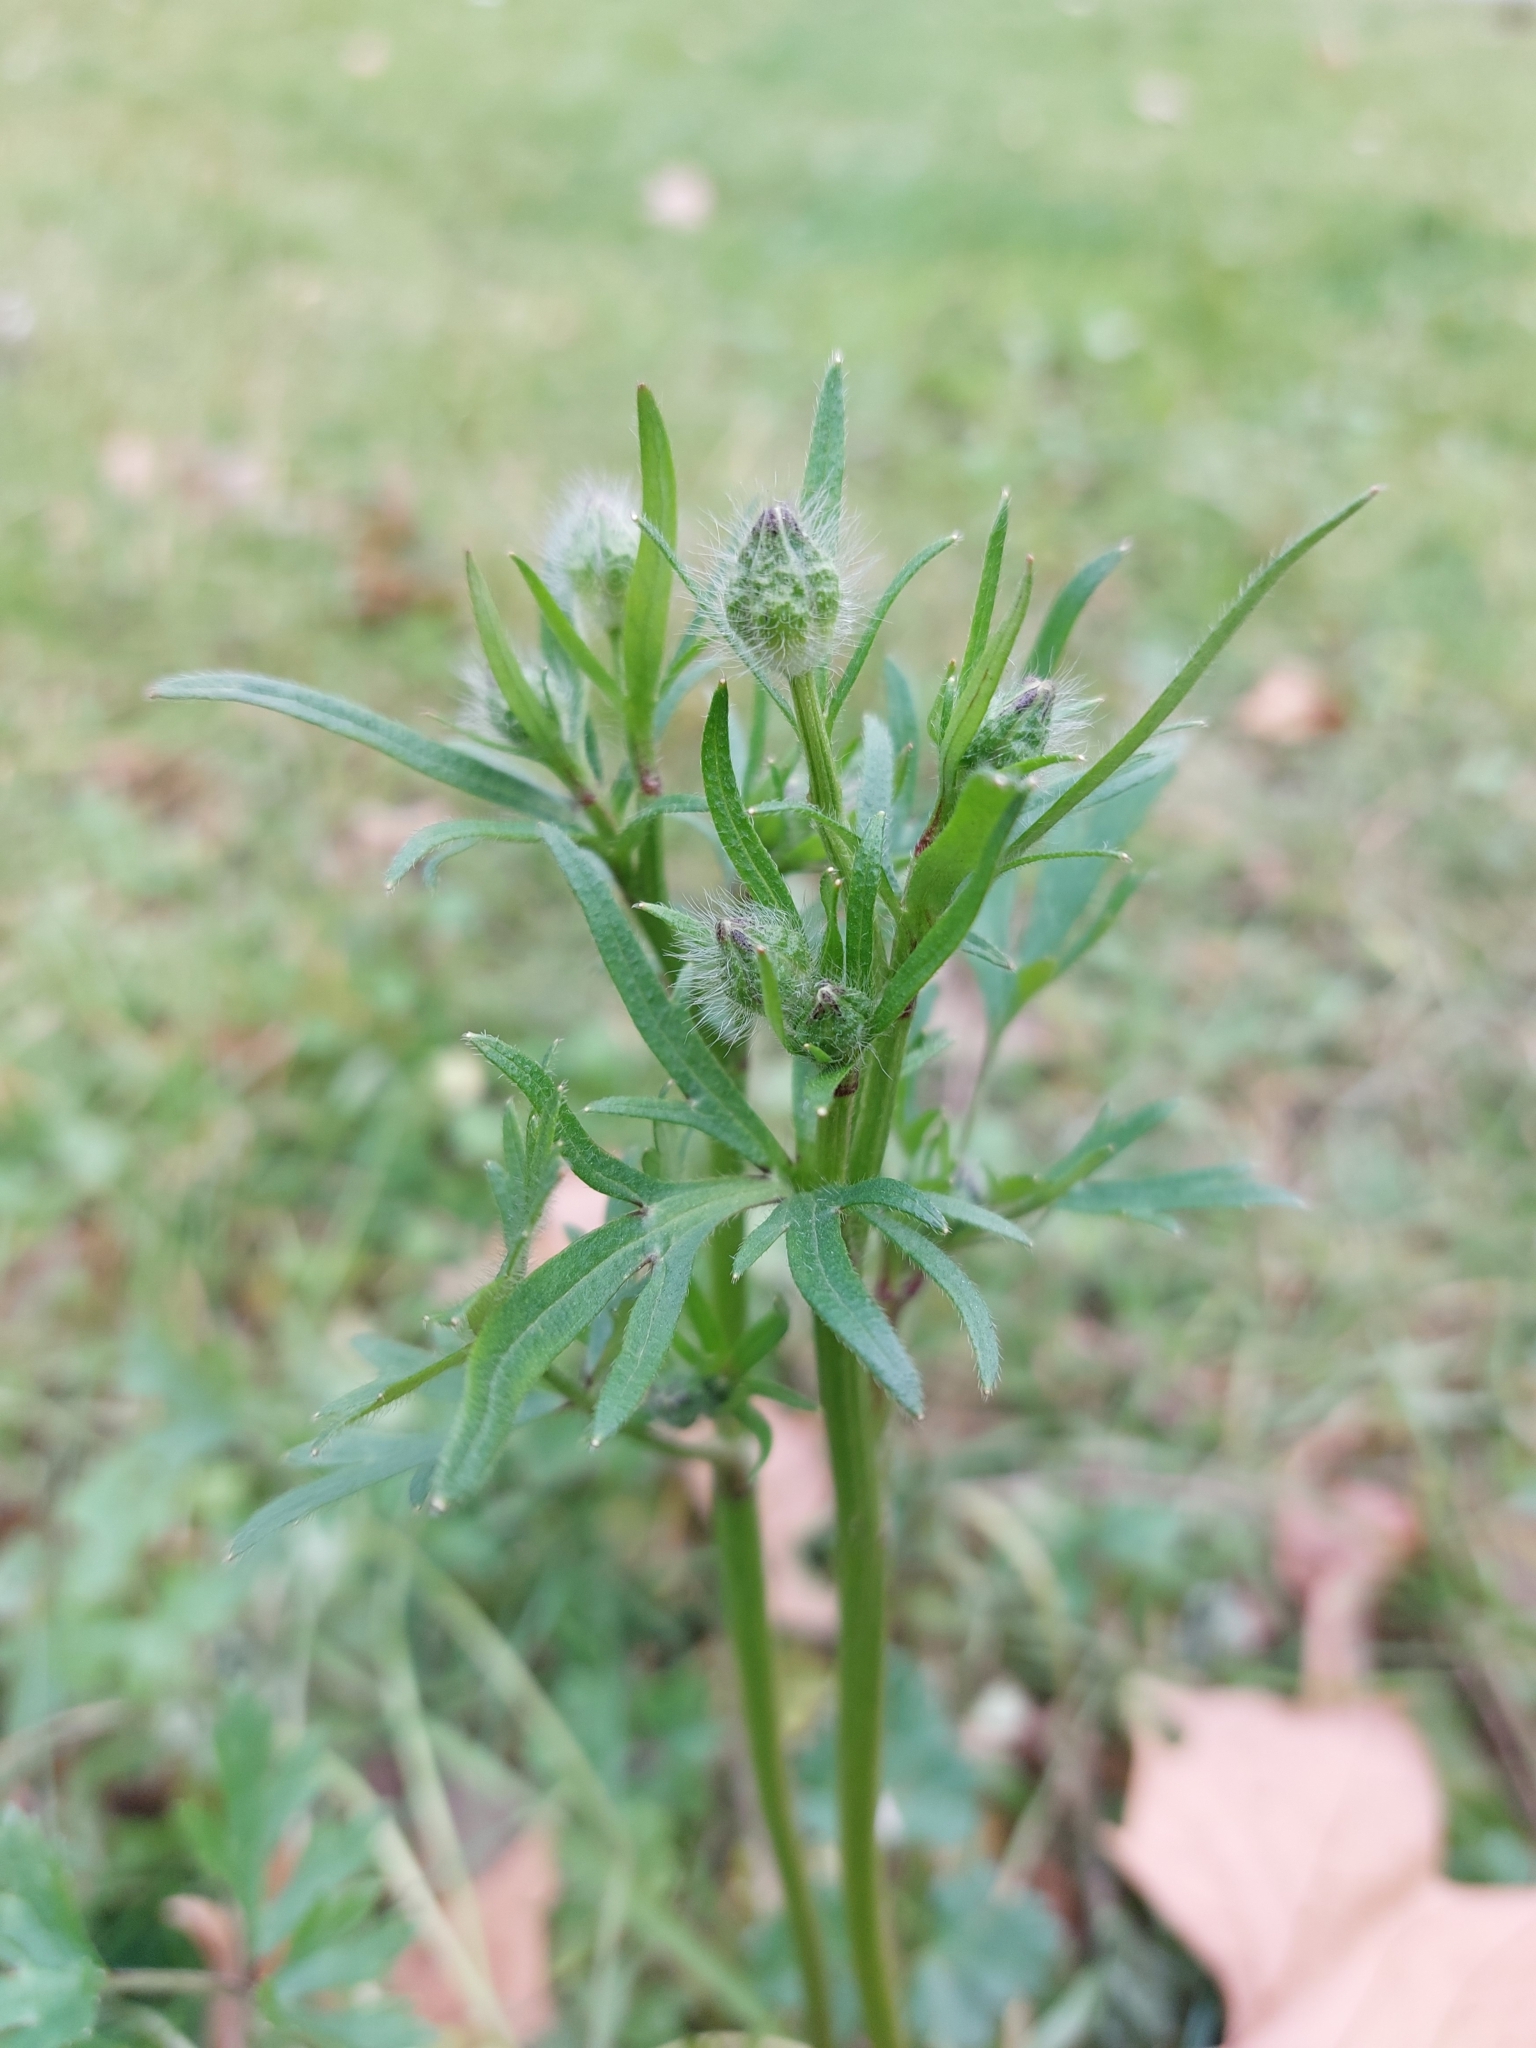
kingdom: Plantae
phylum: Tracheophyta
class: Magnoliopsida
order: Ranunculales
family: Ranunculaceae
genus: Ranunculus
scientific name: Ranunculus bulbosus
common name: Bulbous buttercup
